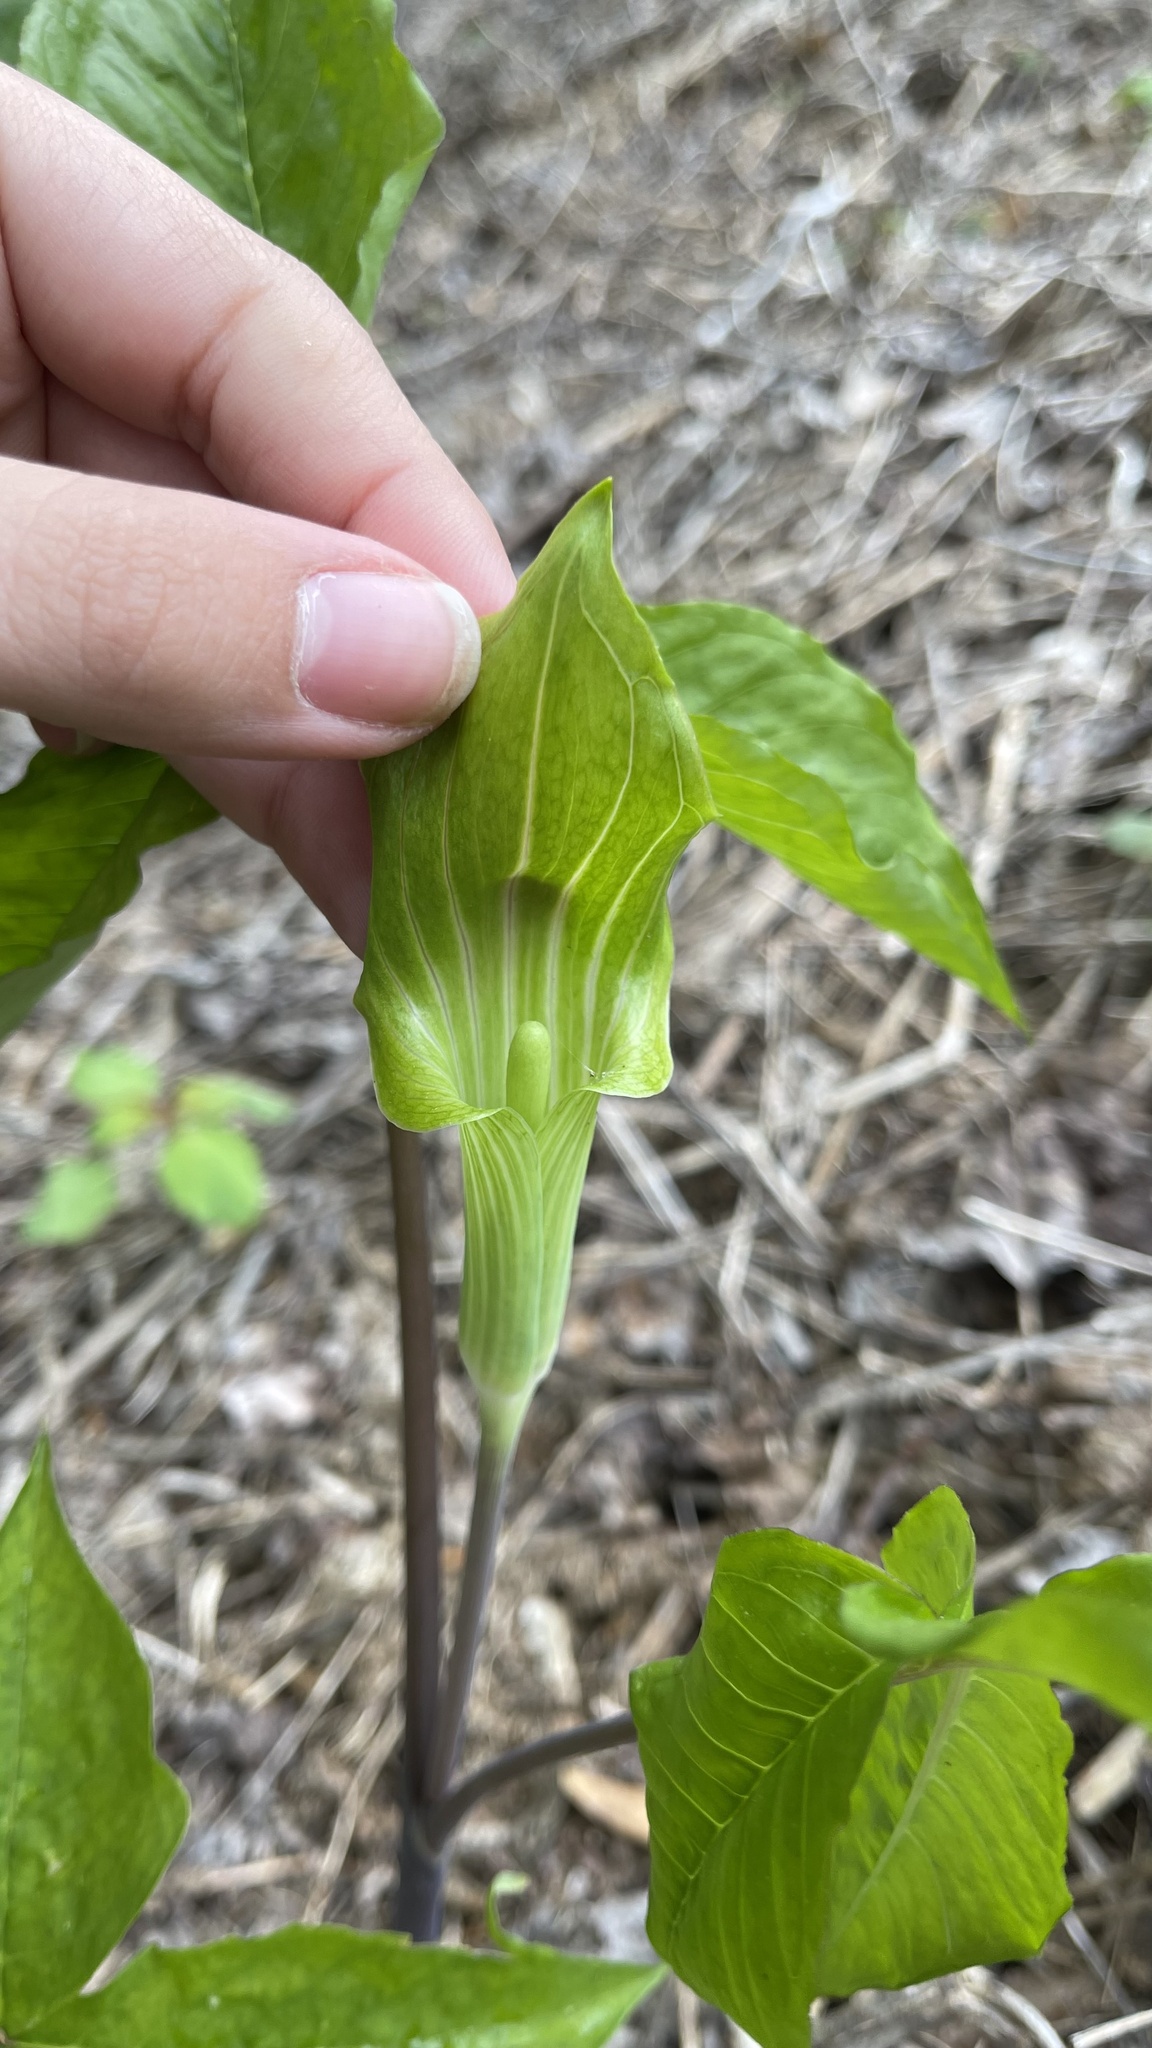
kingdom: Plantae
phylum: Tracheophyta
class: Liliopsida
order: Alismatales
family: Araceae
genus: Arisaema
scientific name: Arisaema triphyllum
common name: Jack-in-the-pulpit
